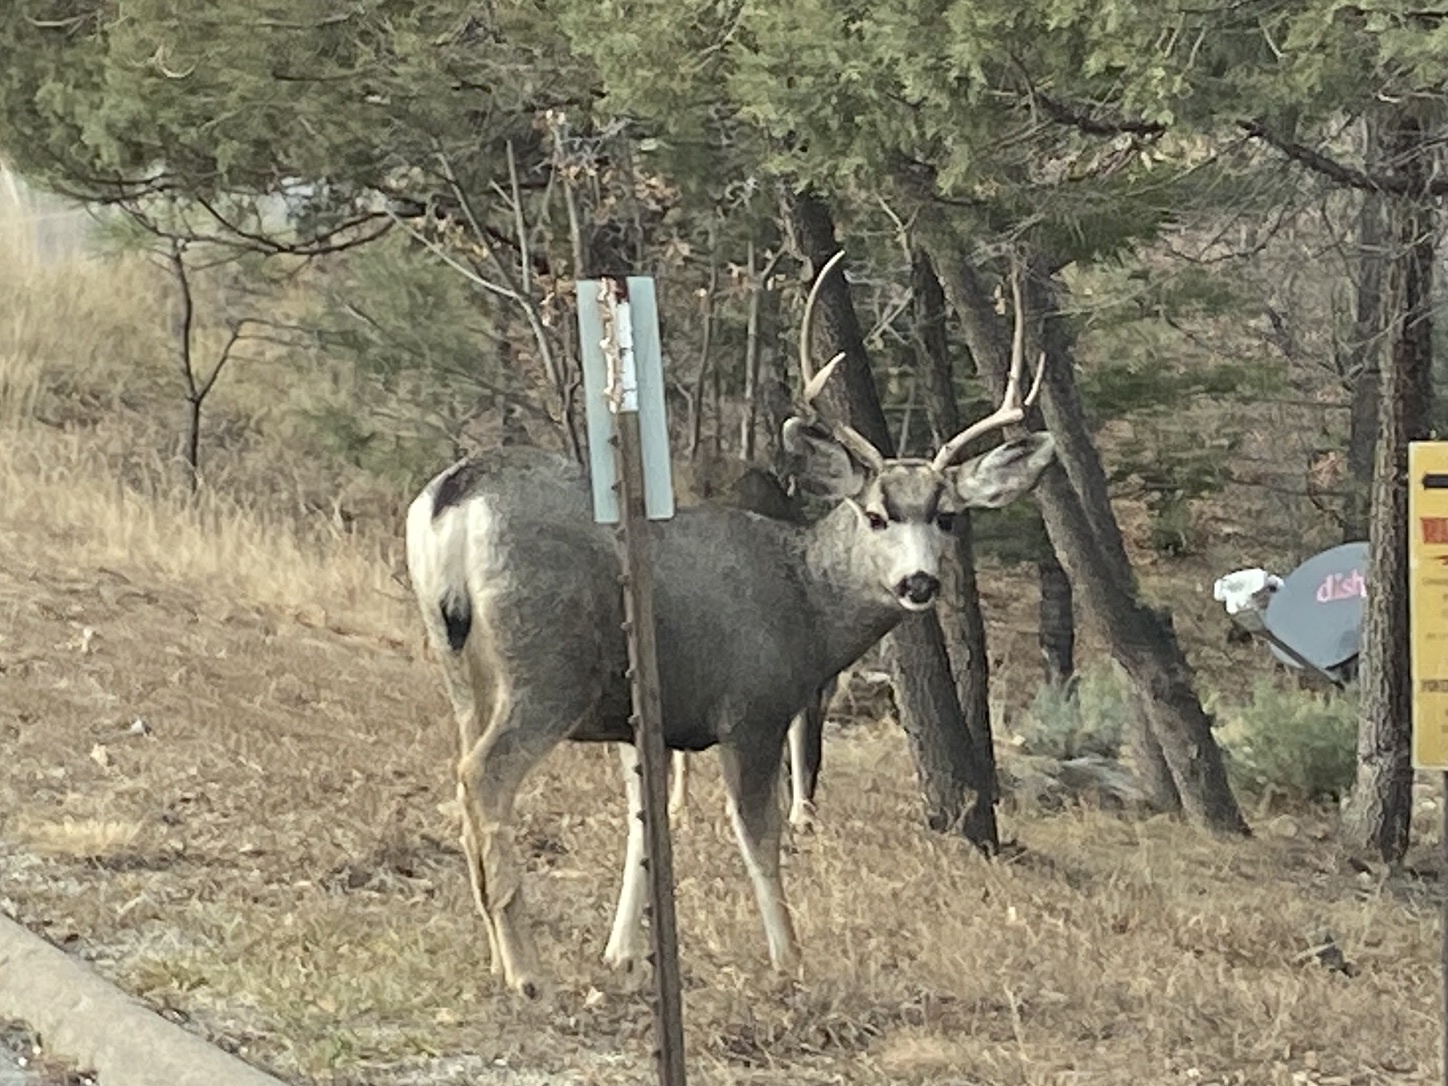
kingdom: Animalia
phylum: Chordata
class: Mammalia
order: Artiodactyla
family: Cervidae
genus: Odocoileus
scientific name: Odocoileus hemionus
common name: Mule deer
